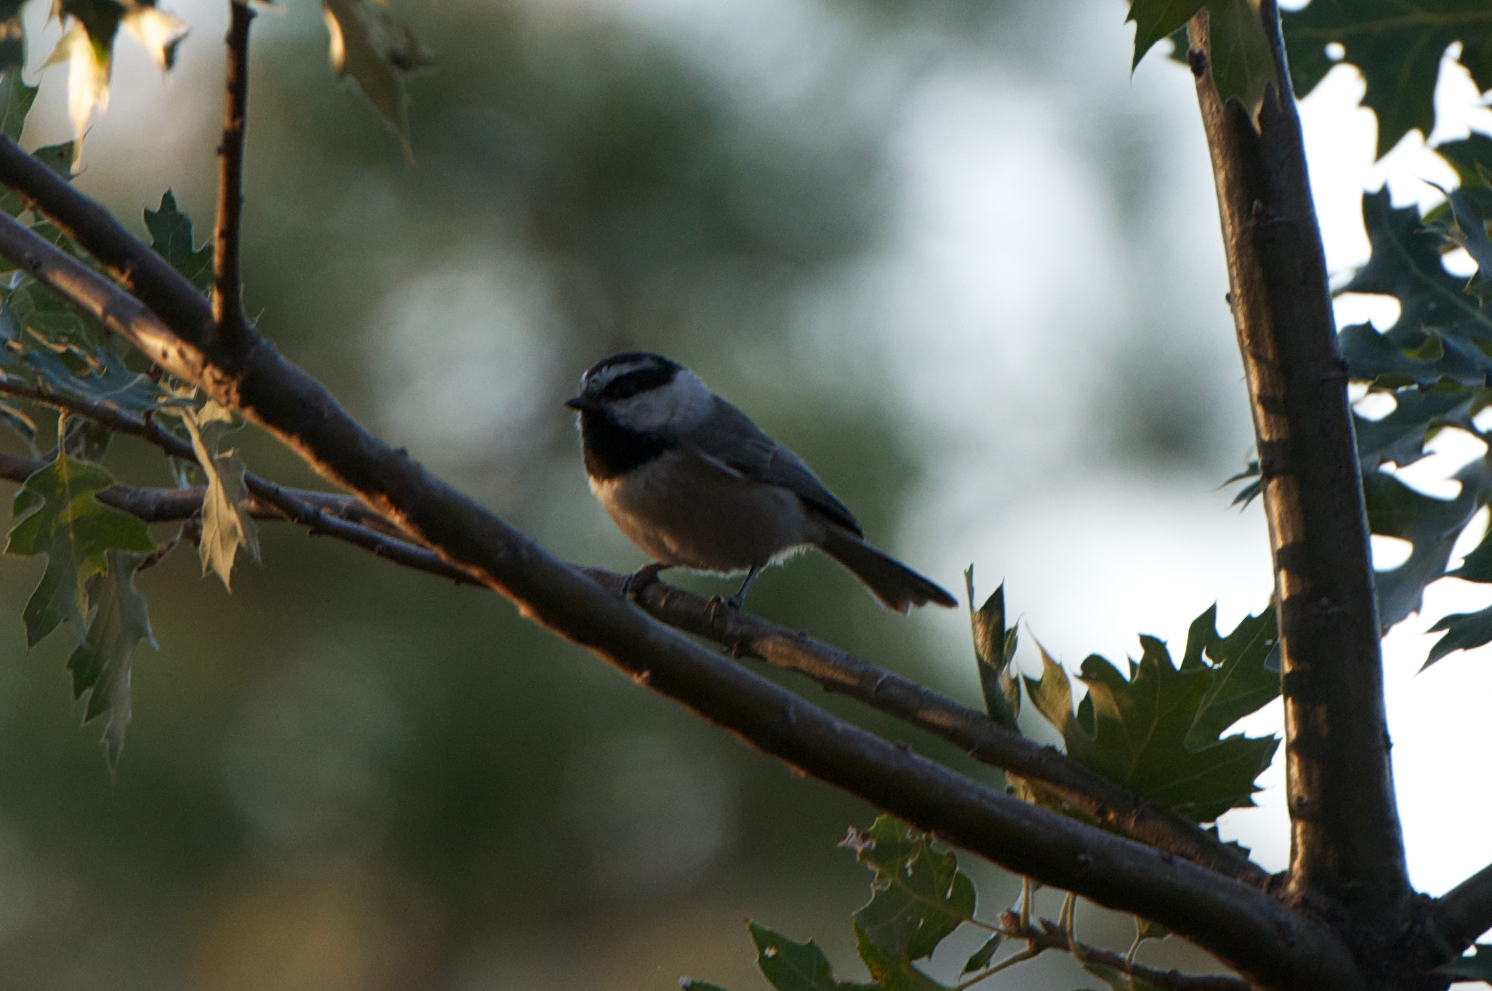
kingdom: Animalia
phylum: Chordata
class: Aves
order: Passeriformes
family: Paridae
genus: Poecile
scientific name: Poecile gambeli
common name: Mountain chickadee
